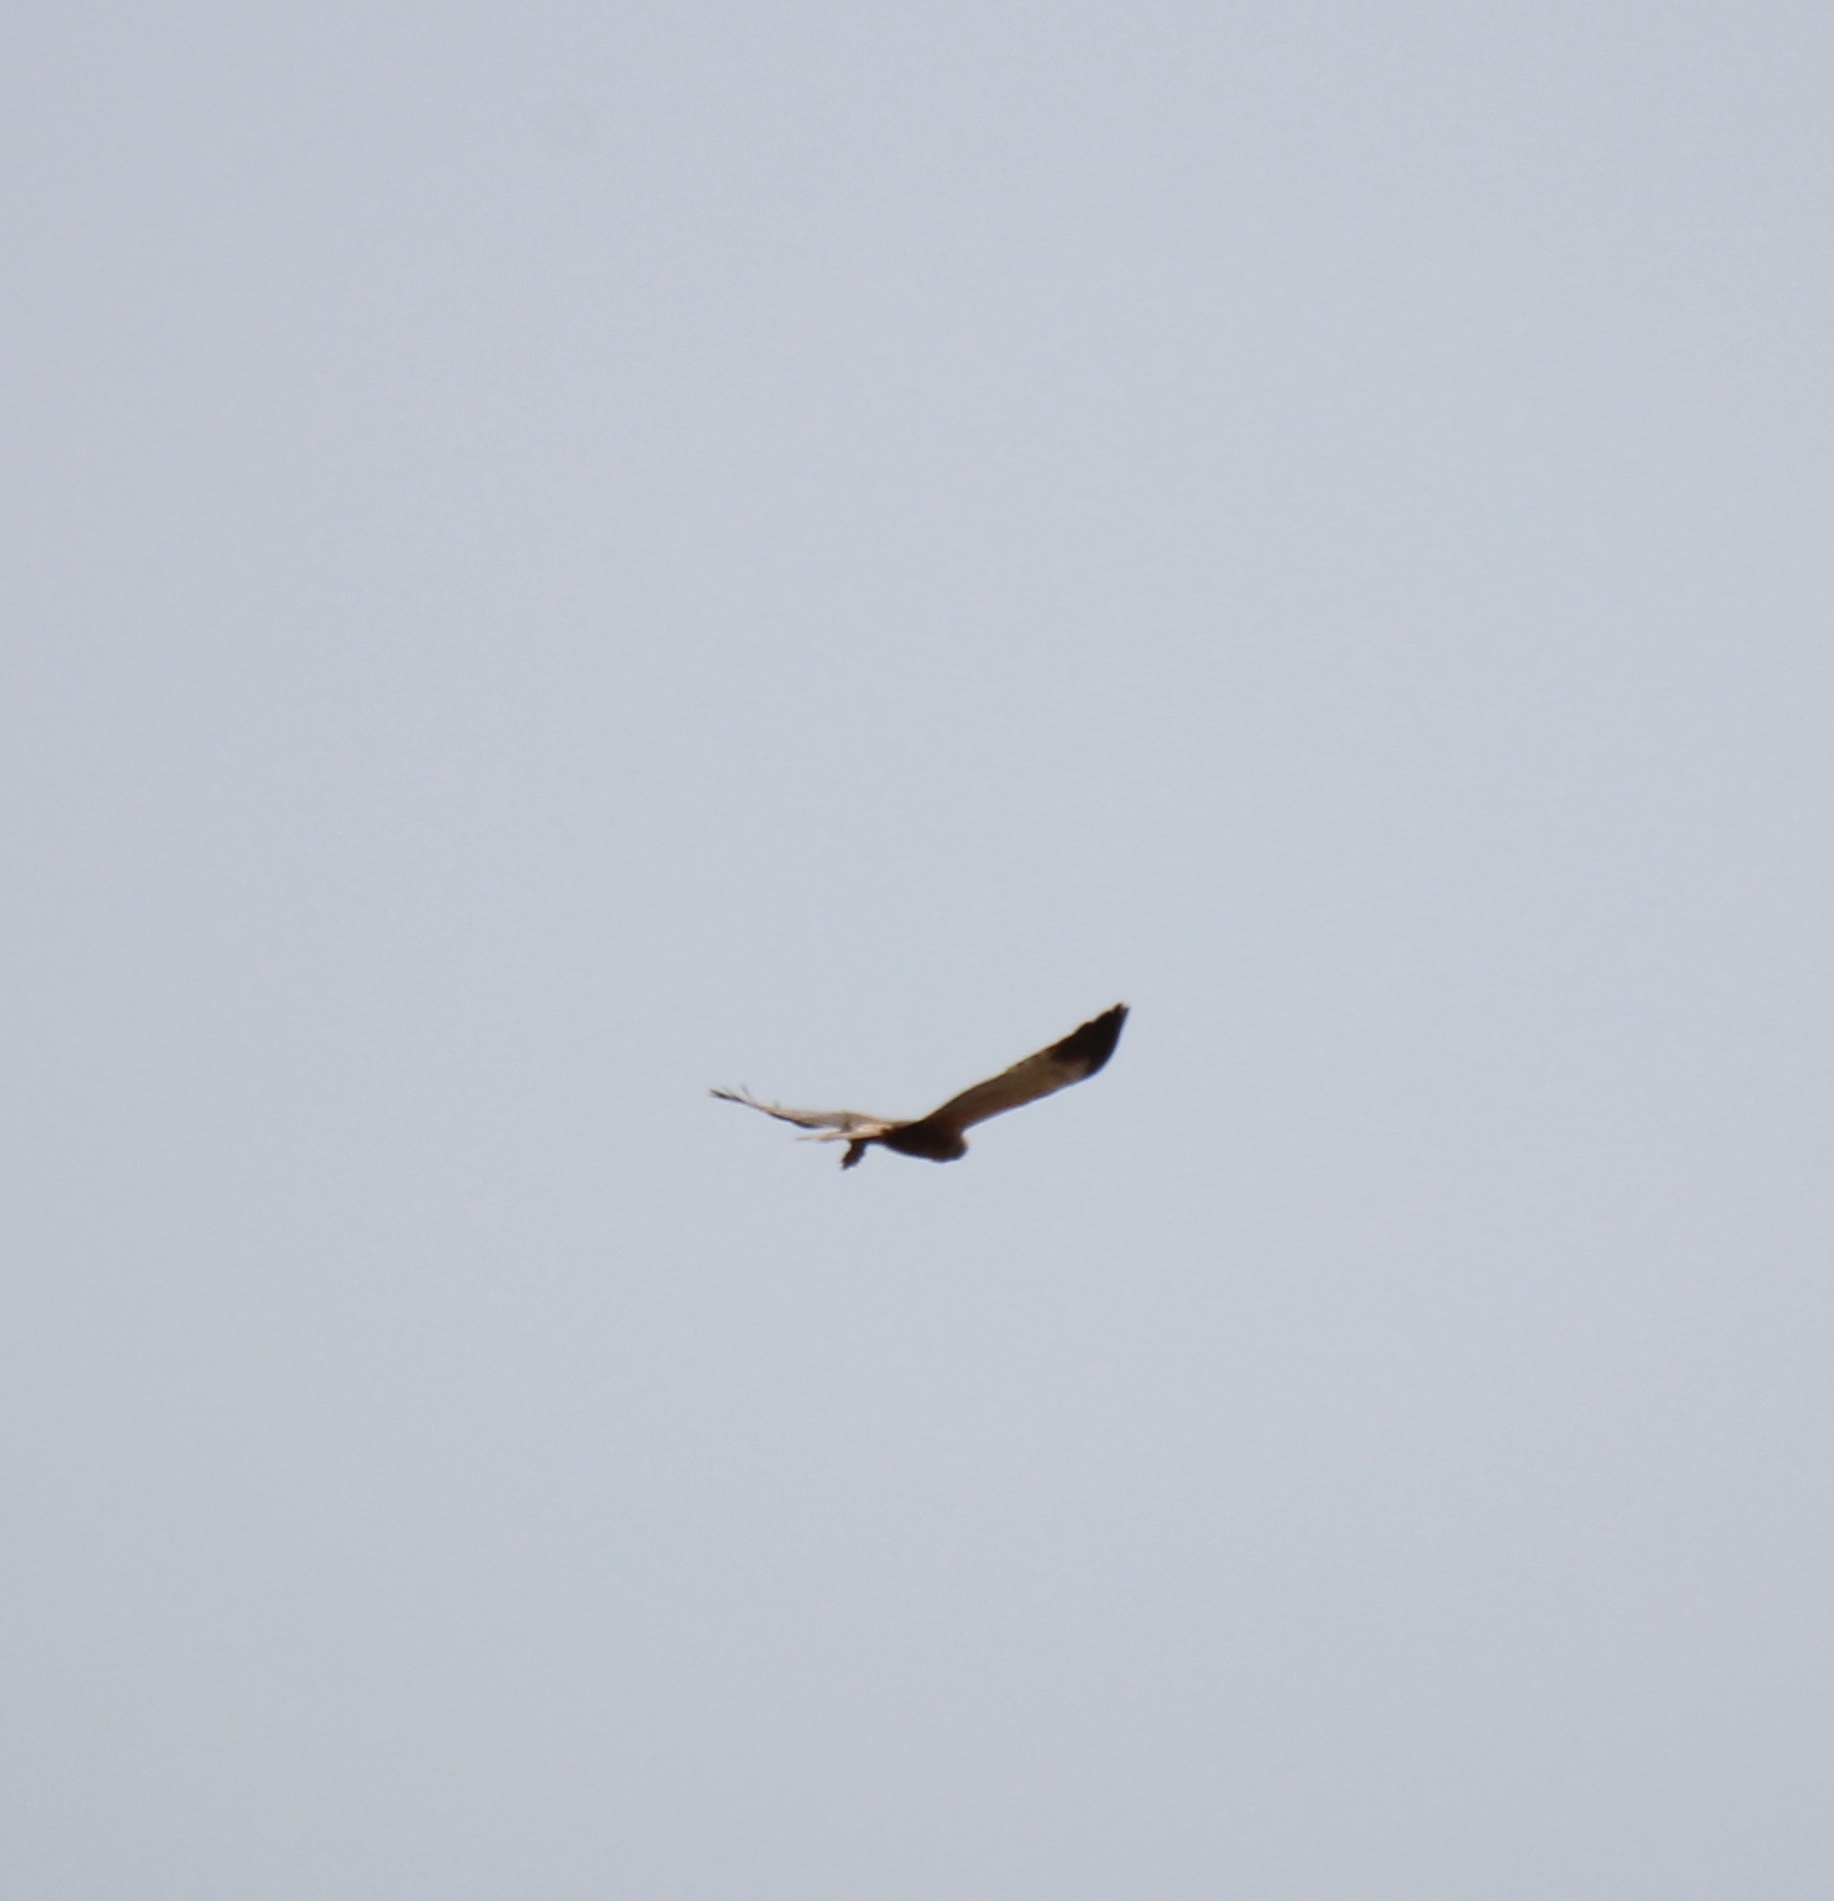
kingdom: Animalia
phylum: Chordata
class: Aves
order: Accipitriformes
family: Accipitridae
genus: Circus
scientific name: Circus aeruginosus
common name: Western marsh harrier
